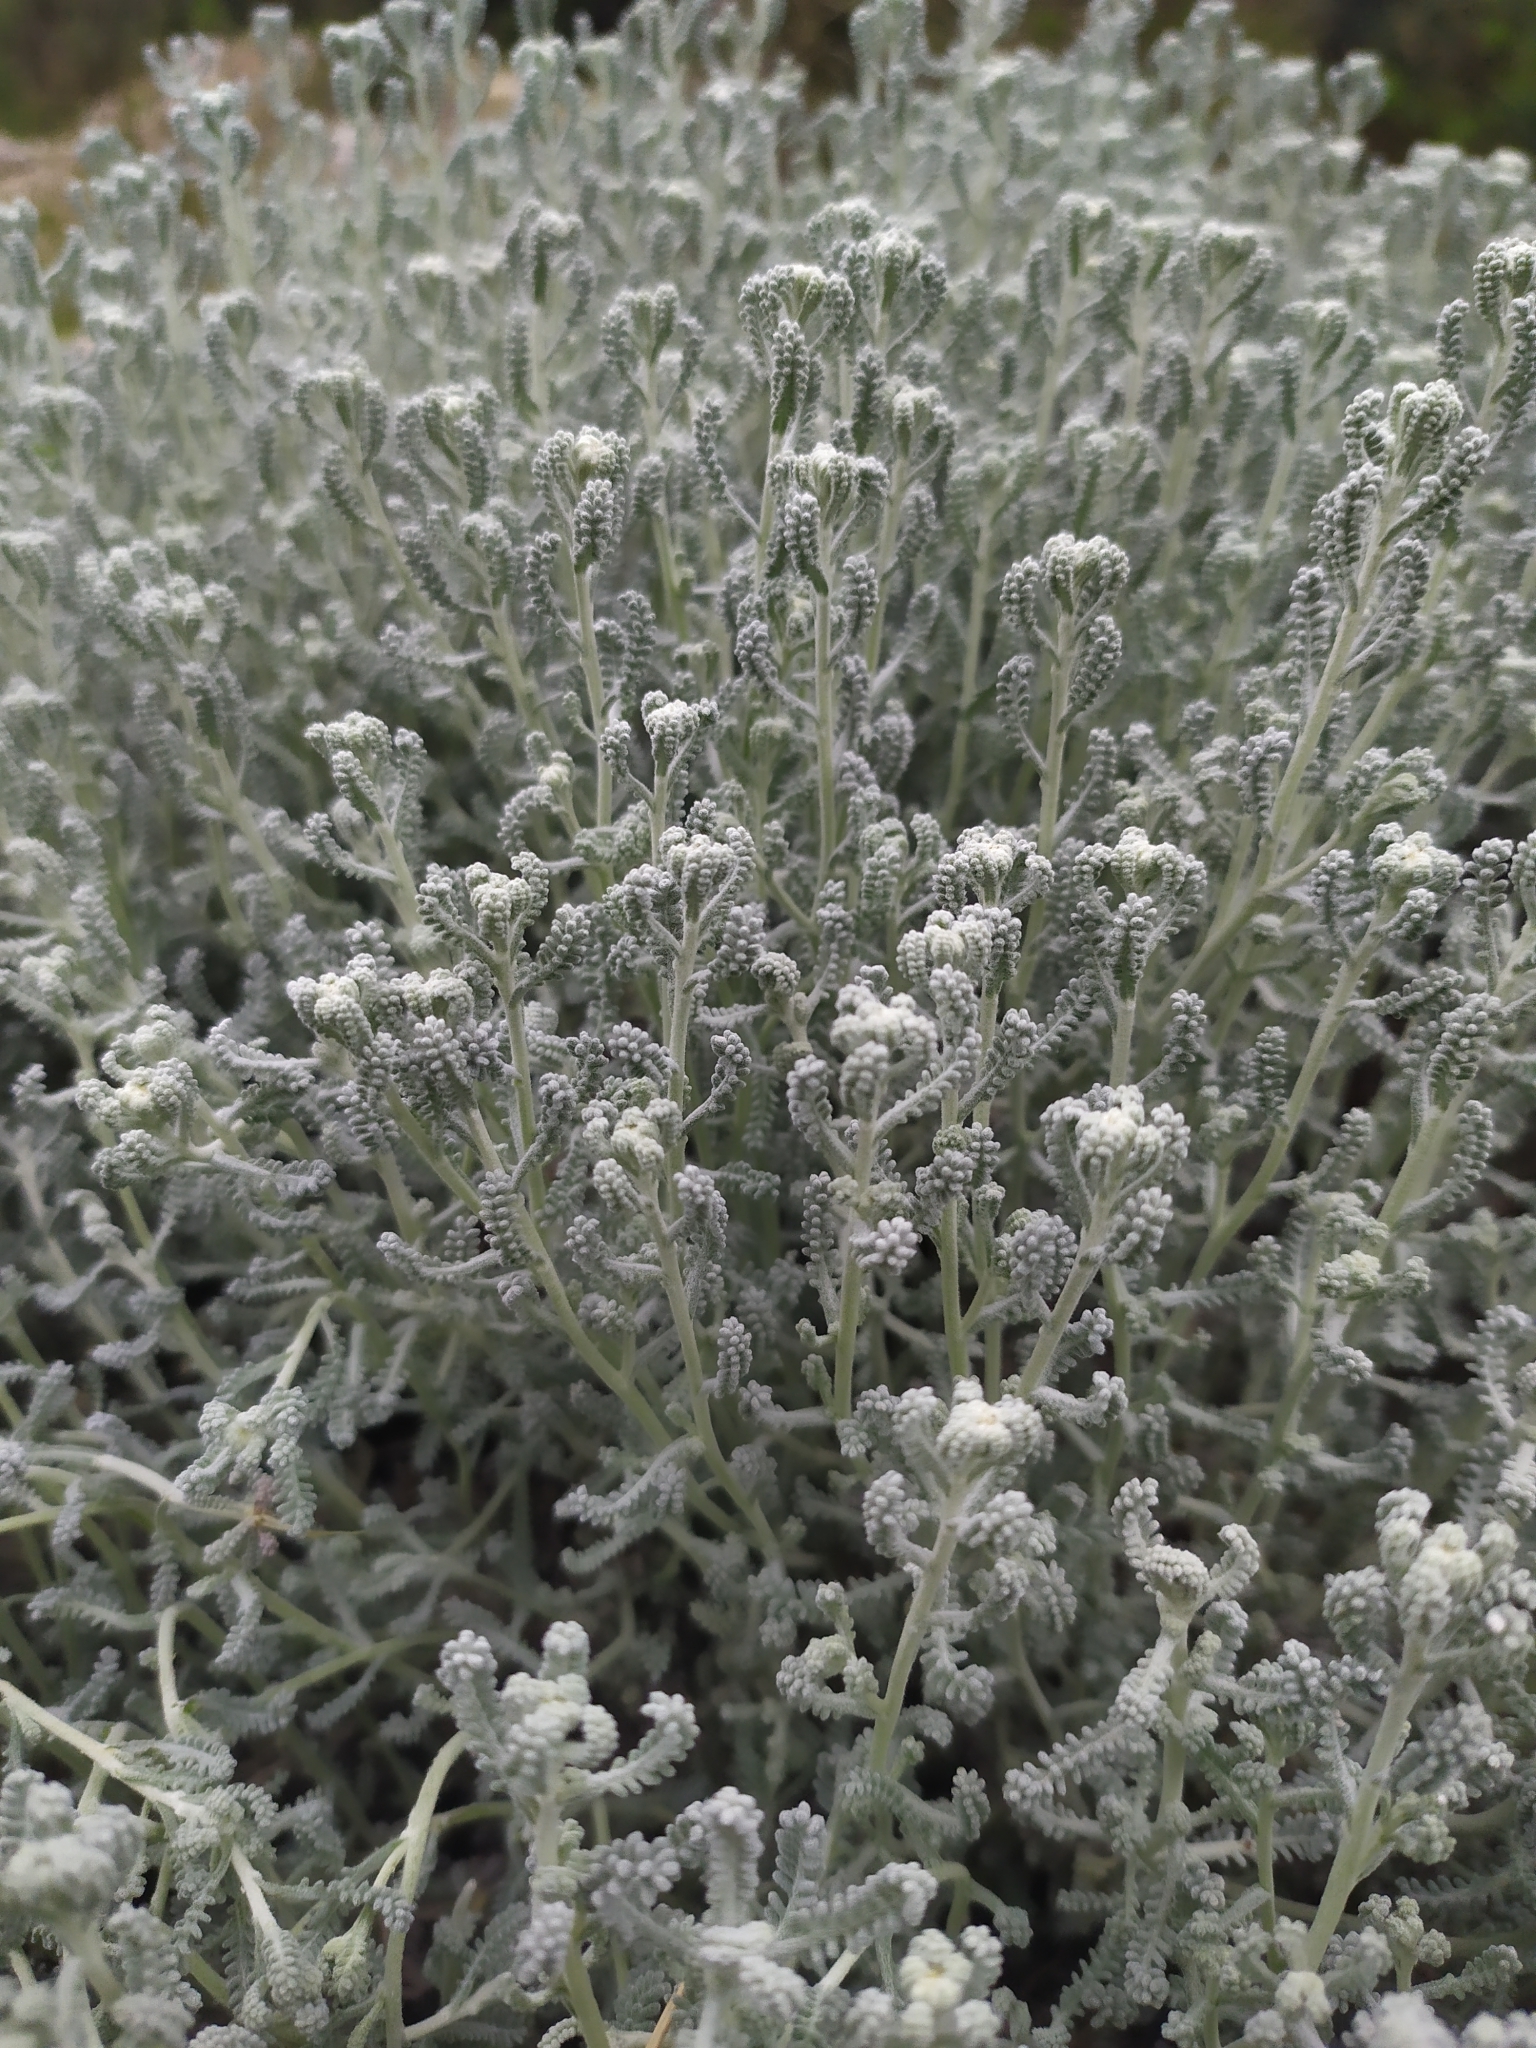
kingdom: Plantae
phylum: Tracheophyta
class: Magnoliopsida
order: Asterales
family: Asteraceae
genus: Santolina
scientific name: Santolina magonica
